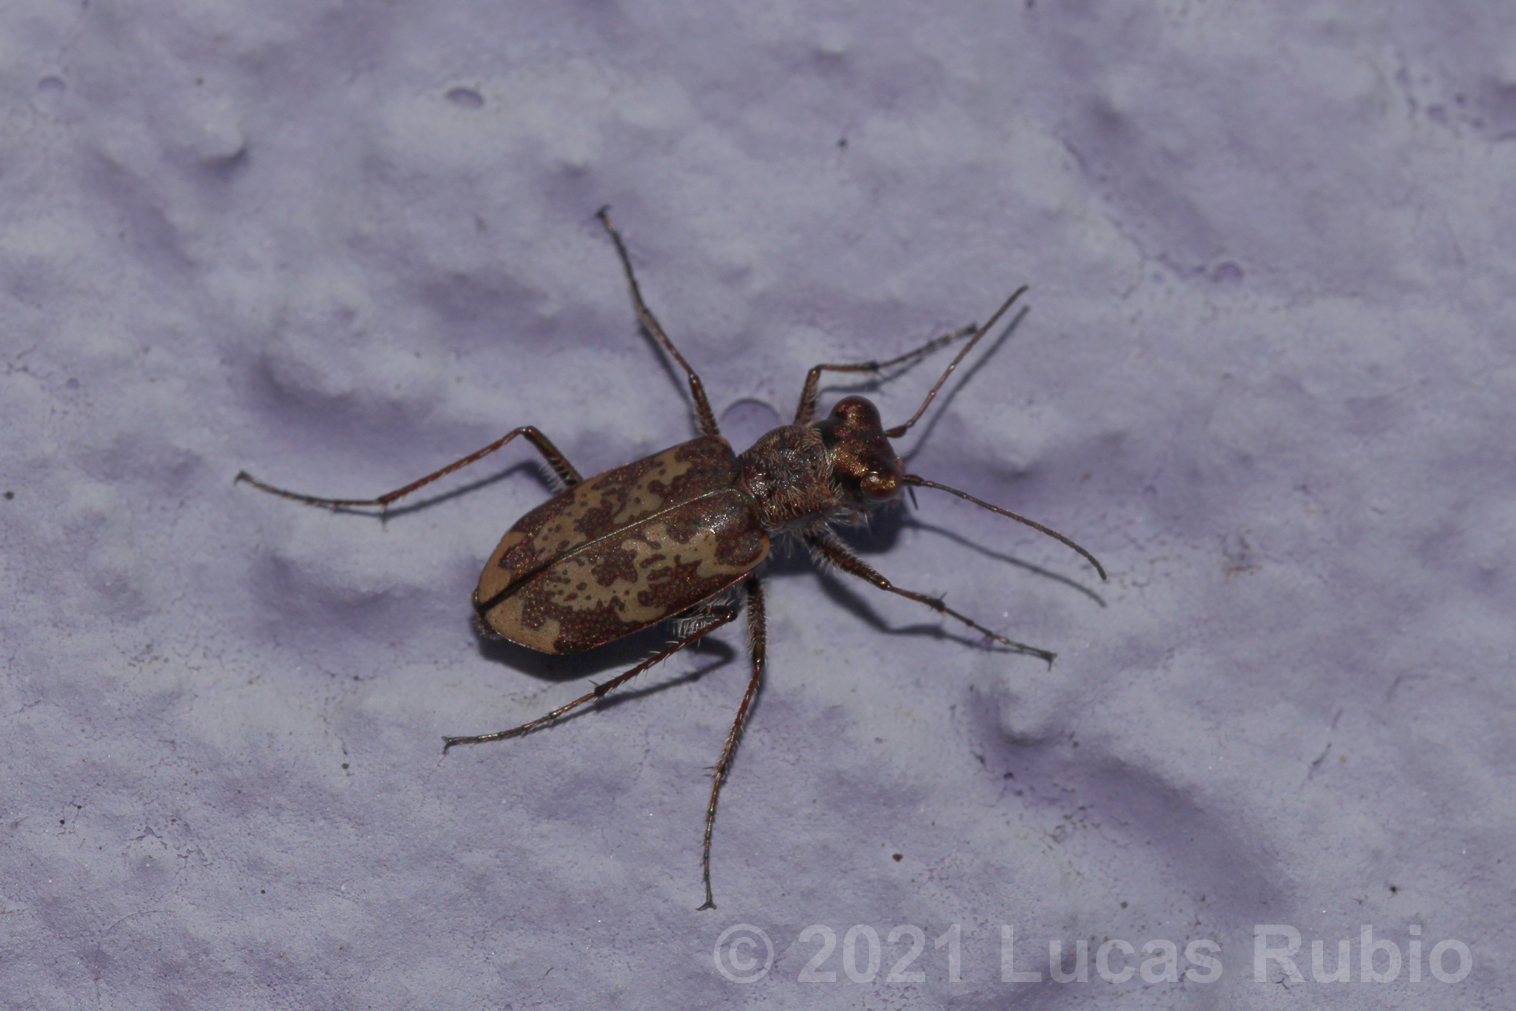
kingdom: Animalia
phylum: Arthropoda
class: Insecta
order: Coleoptera
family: Carabidae
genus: Cylindera
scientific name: Cylindera apiata
